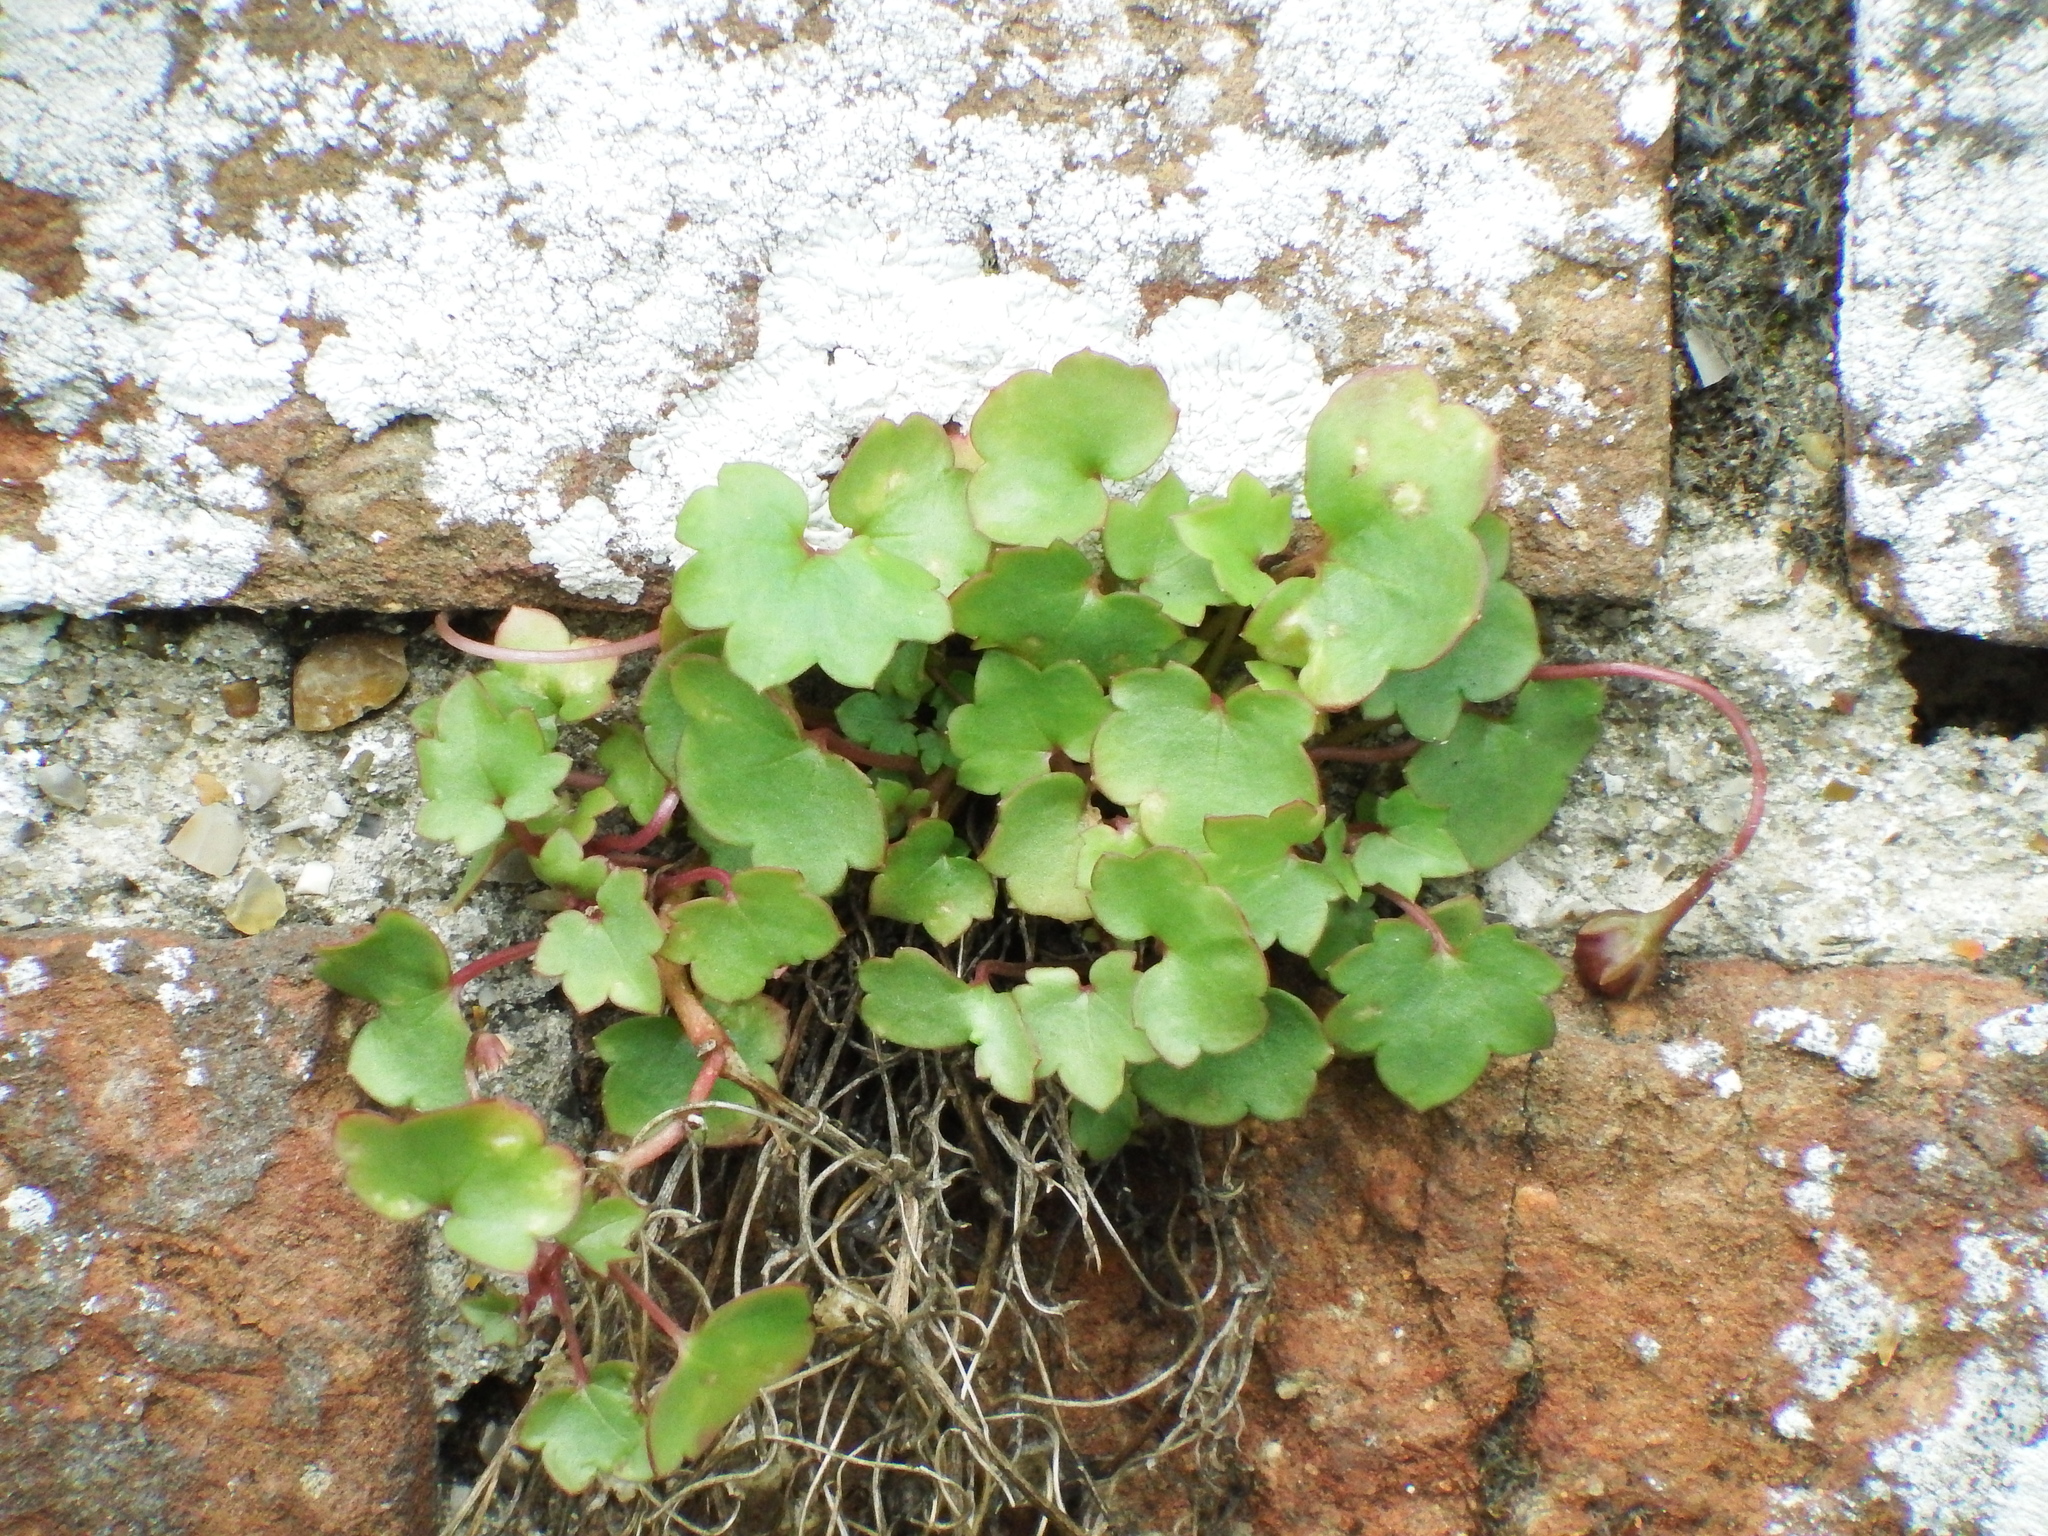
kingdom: Plantae
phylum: Tracheophyta
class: Magnoliopsida
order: Lamiales
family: Plantaginaceae
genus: Cymbalaria
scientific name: Cymbalaria muralis
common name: Ivy-leaved toadflax
